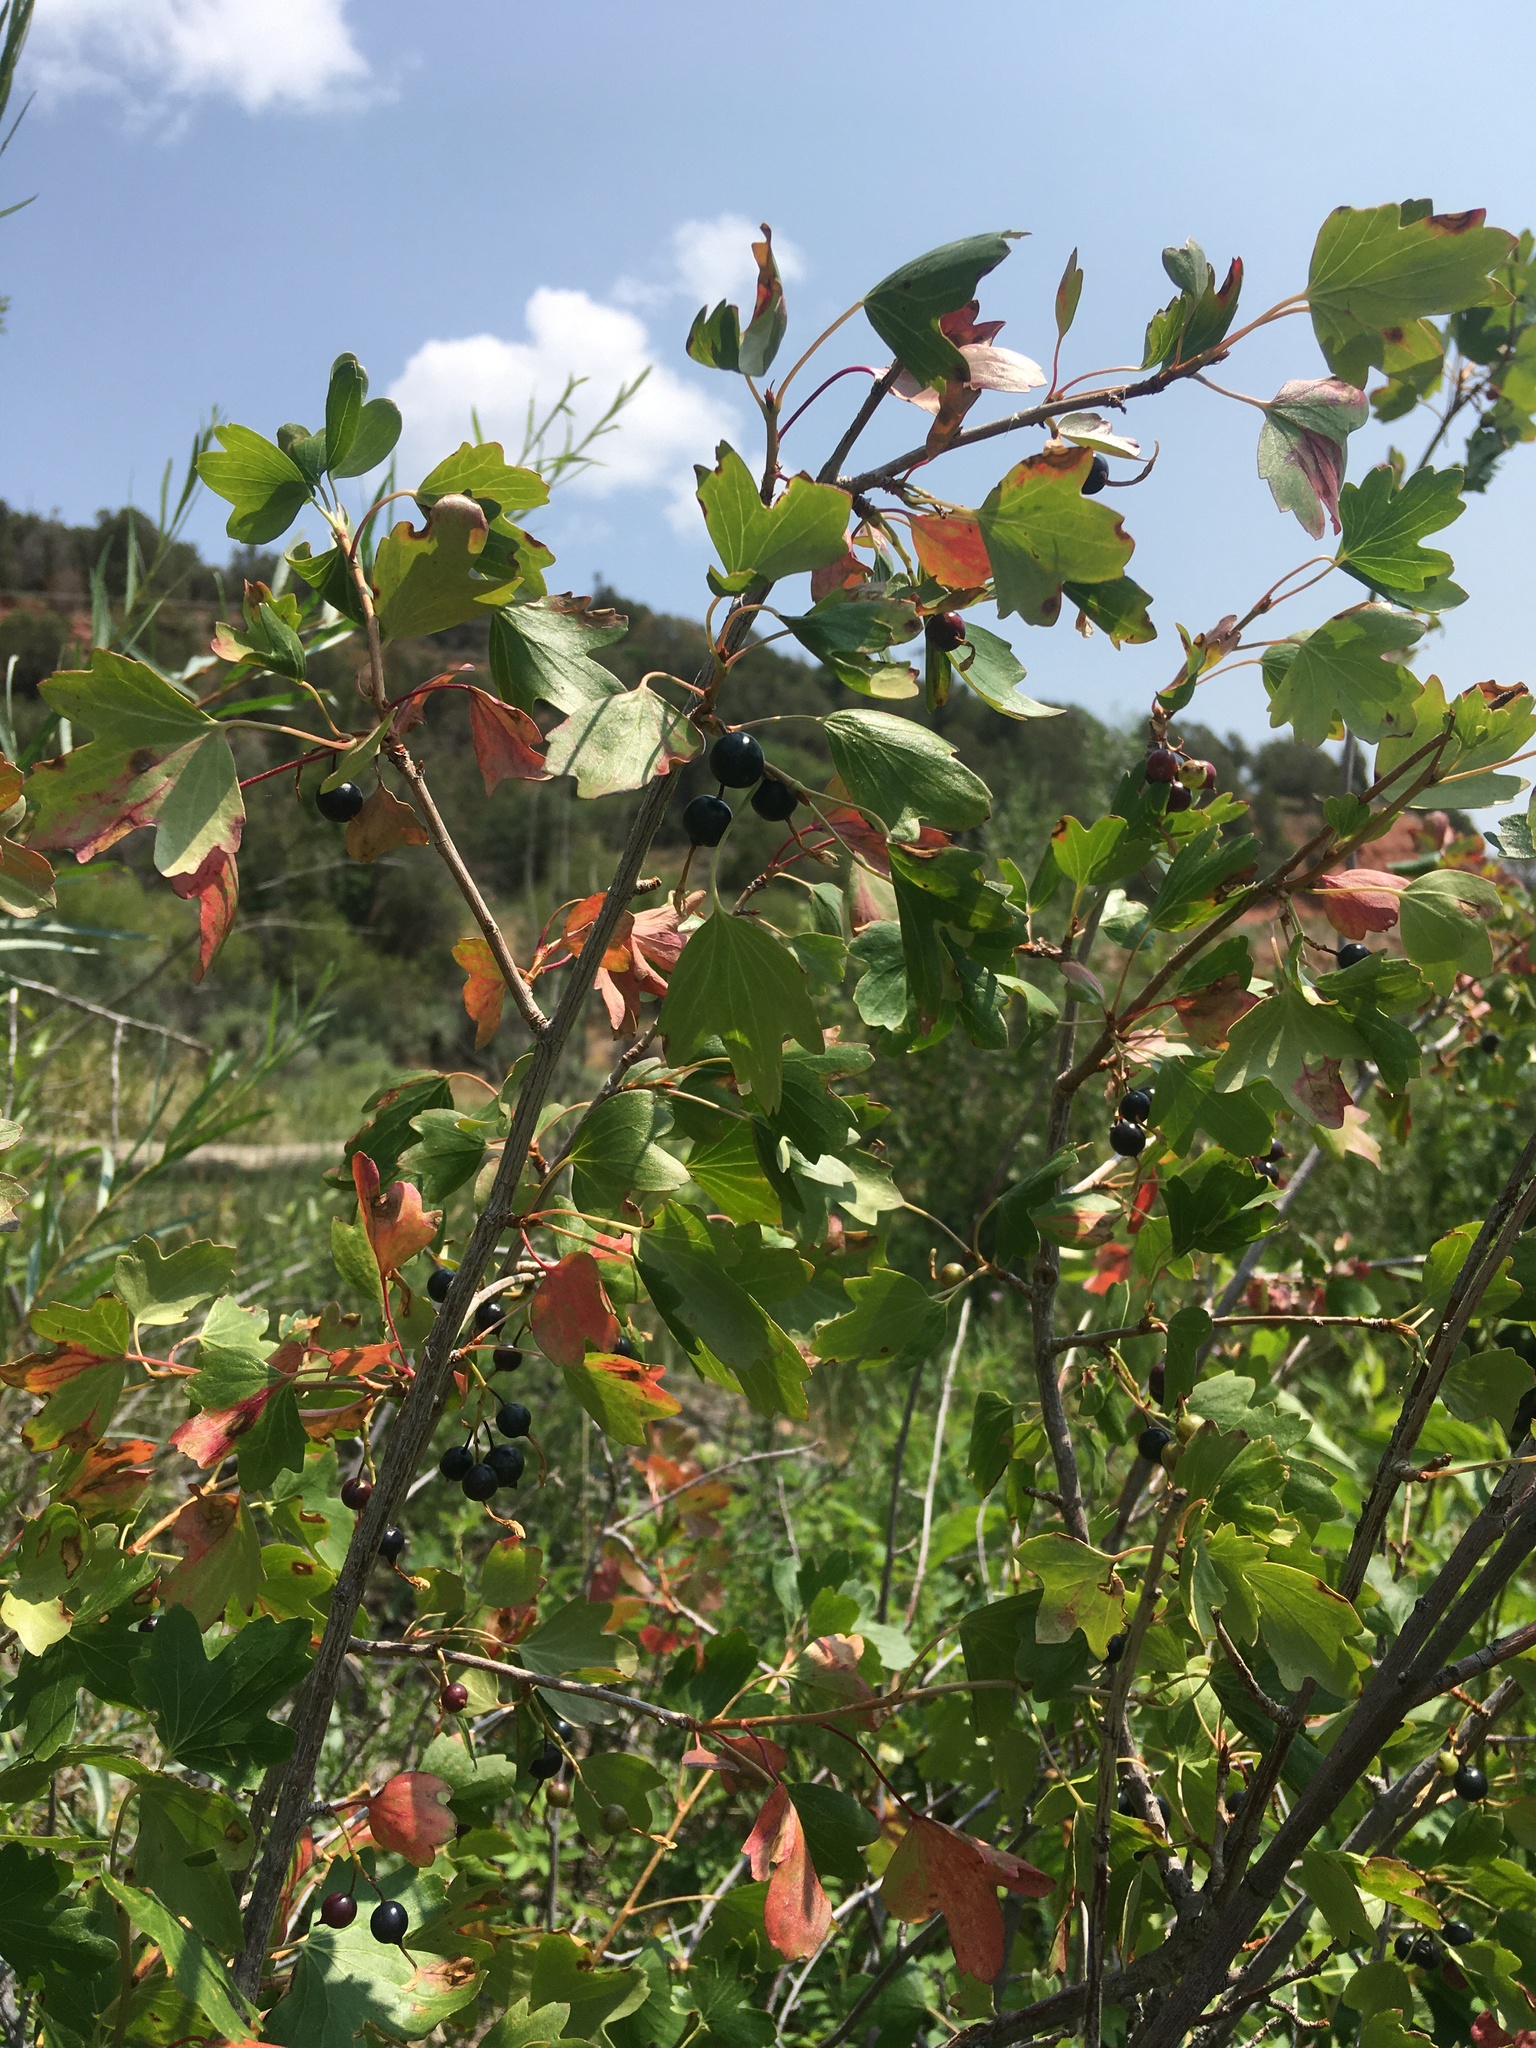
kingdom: Plantae
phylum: Tracheophyta
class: Magnoliopsida
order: Saxifragales
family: Grossulariaceae
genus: Ribes
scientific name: Ribes aureum
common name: Golden currant
